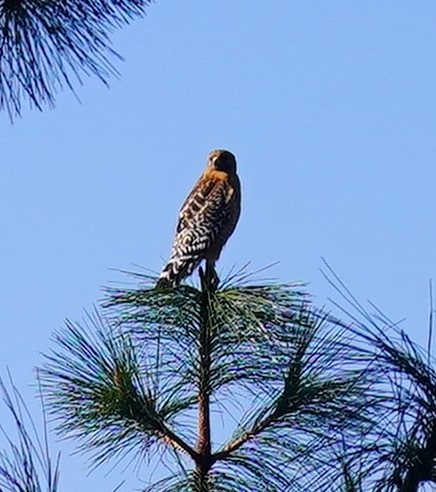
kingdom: Animalia
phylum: Chordata
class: Aves
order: Accipitriformes
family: Accipitridae
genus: Buteo
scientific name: Buteo lineatus
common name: Red-shouldered hawk
